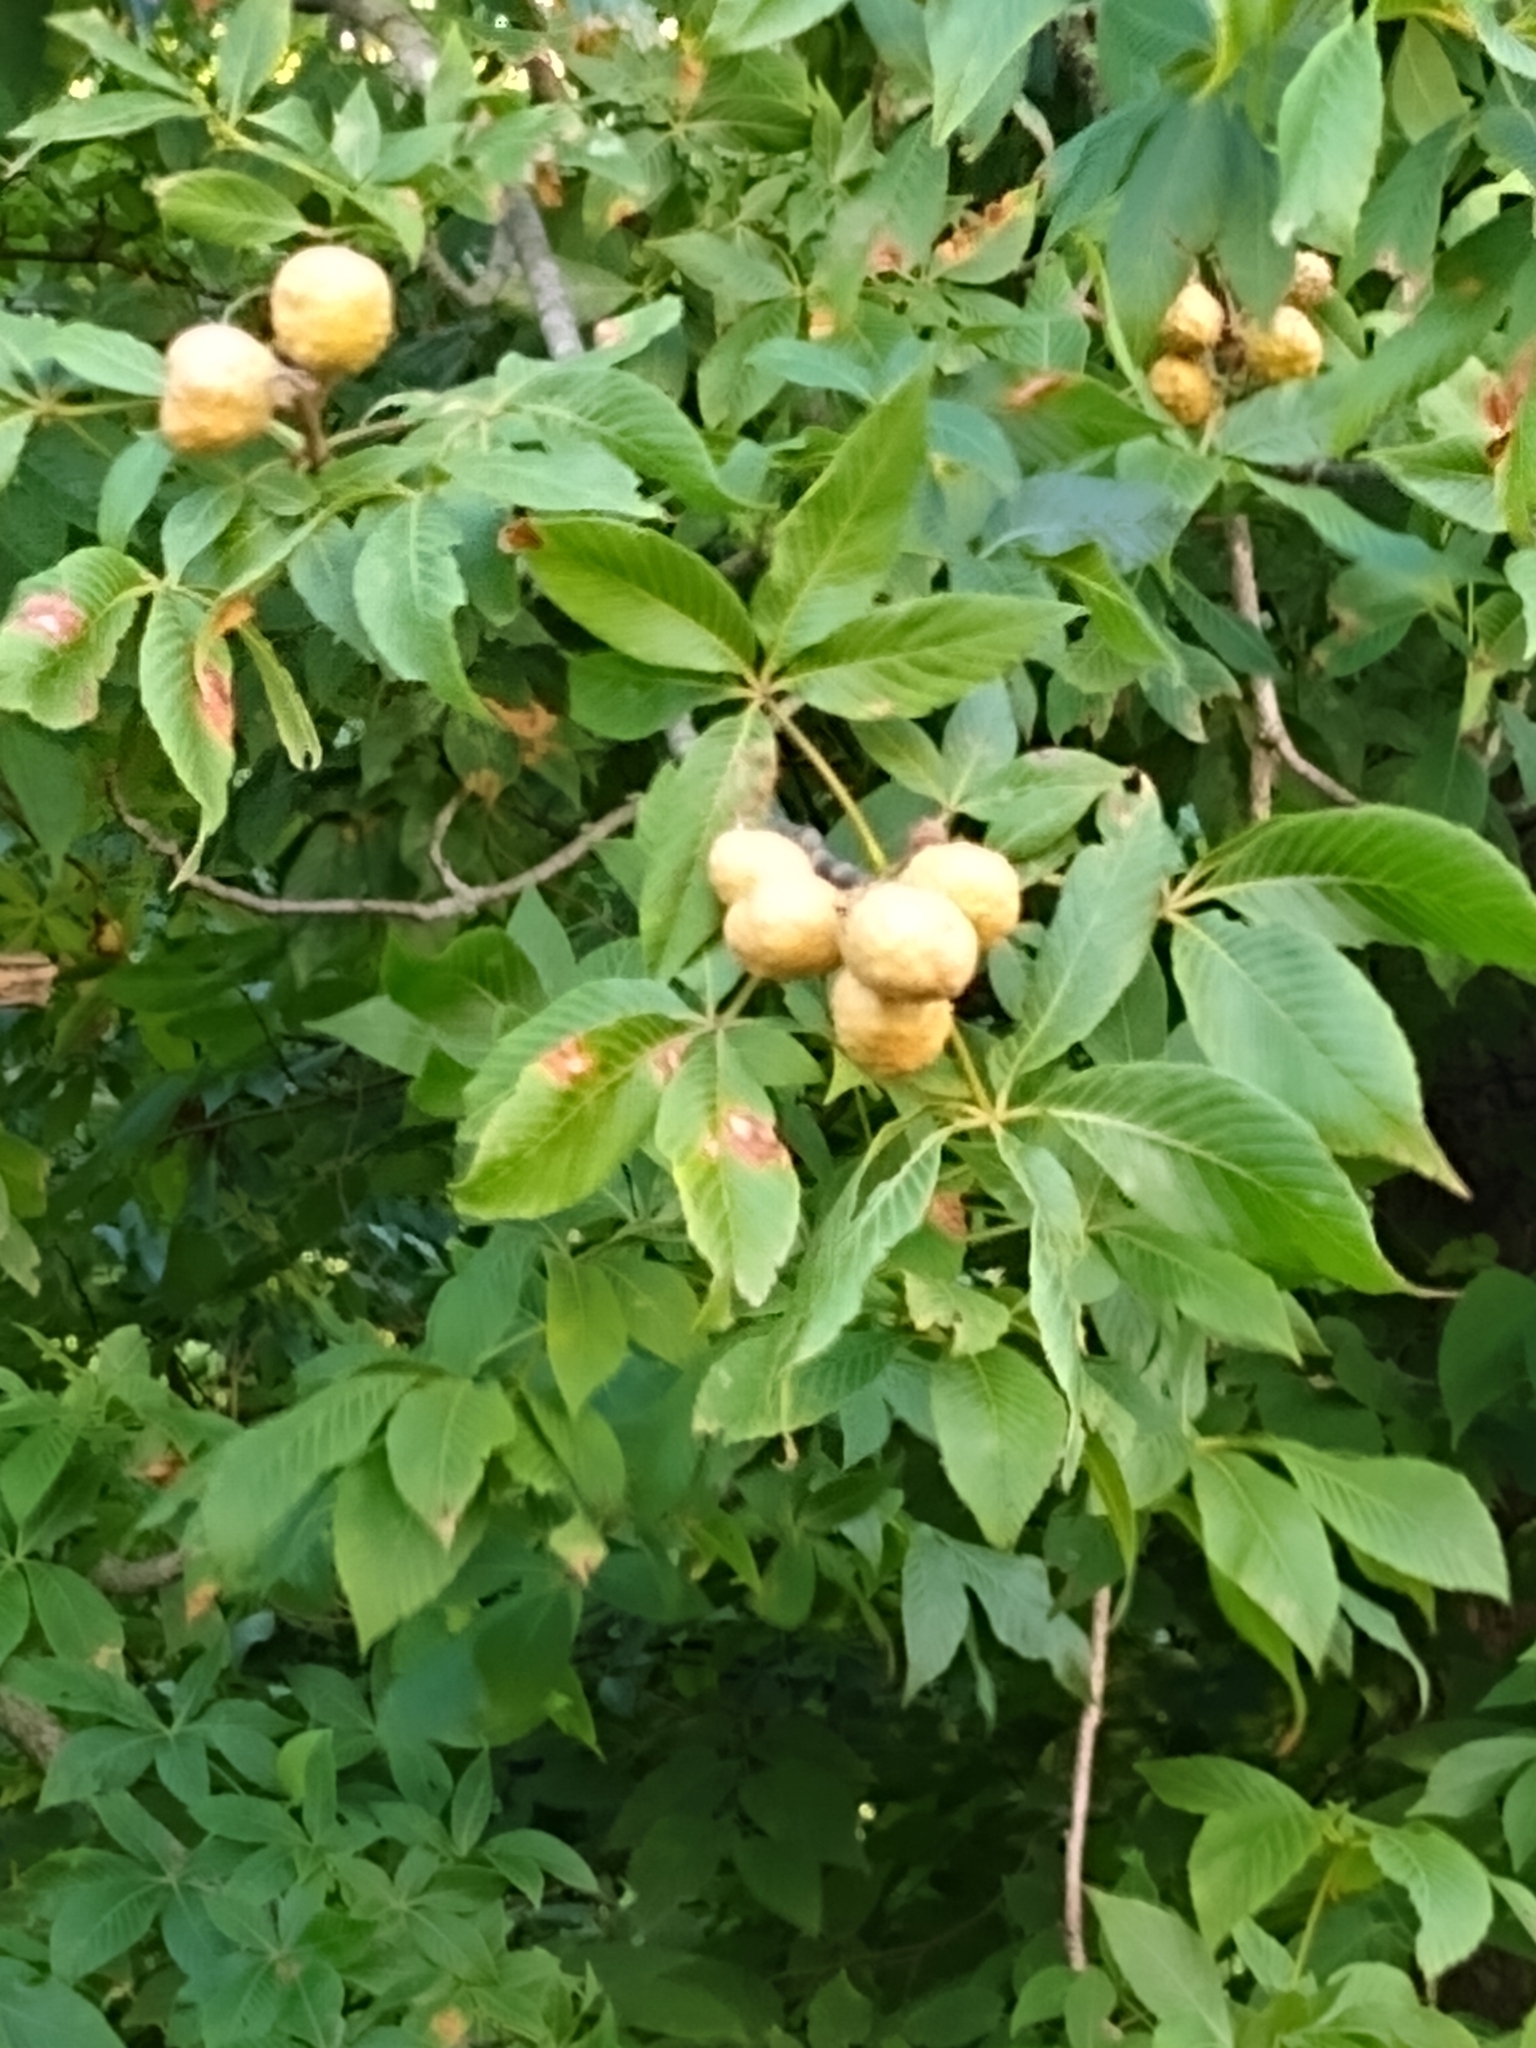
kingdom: Plantae
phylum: Tracheophyta
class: Magnoliopsida
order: Sapindales
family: Sapindaceae
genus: Aesculus
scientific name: Aesculus glabra
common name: Ohio buckeye
